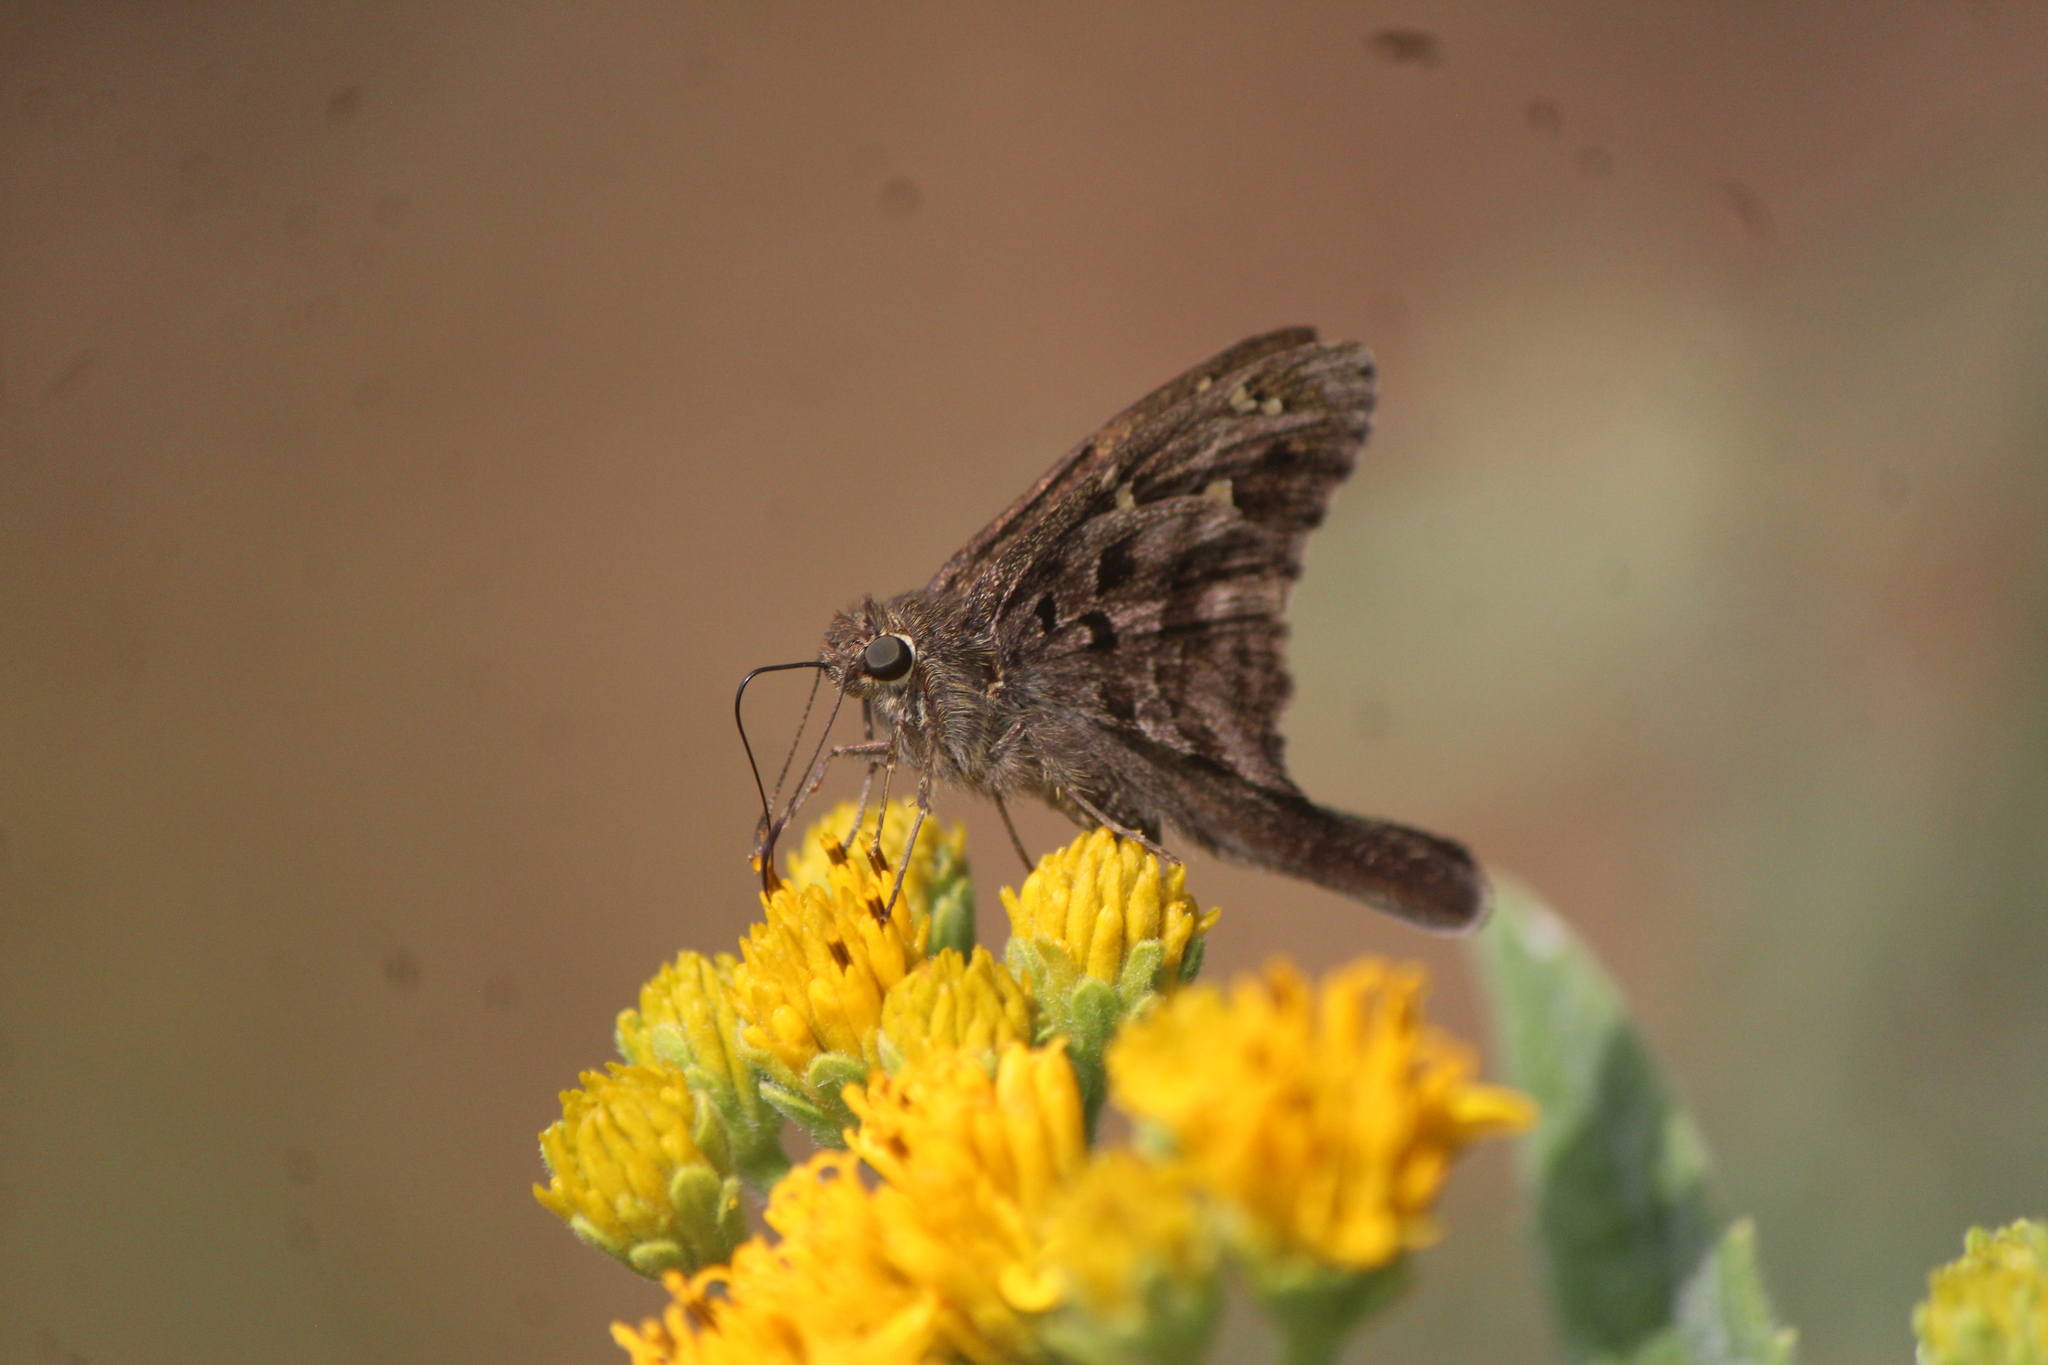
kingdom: Animalia
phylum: Arthropoda
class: Insecta
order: Lepidoptera
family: Hesperiidae
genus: Thorybes
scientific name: Thorybes
